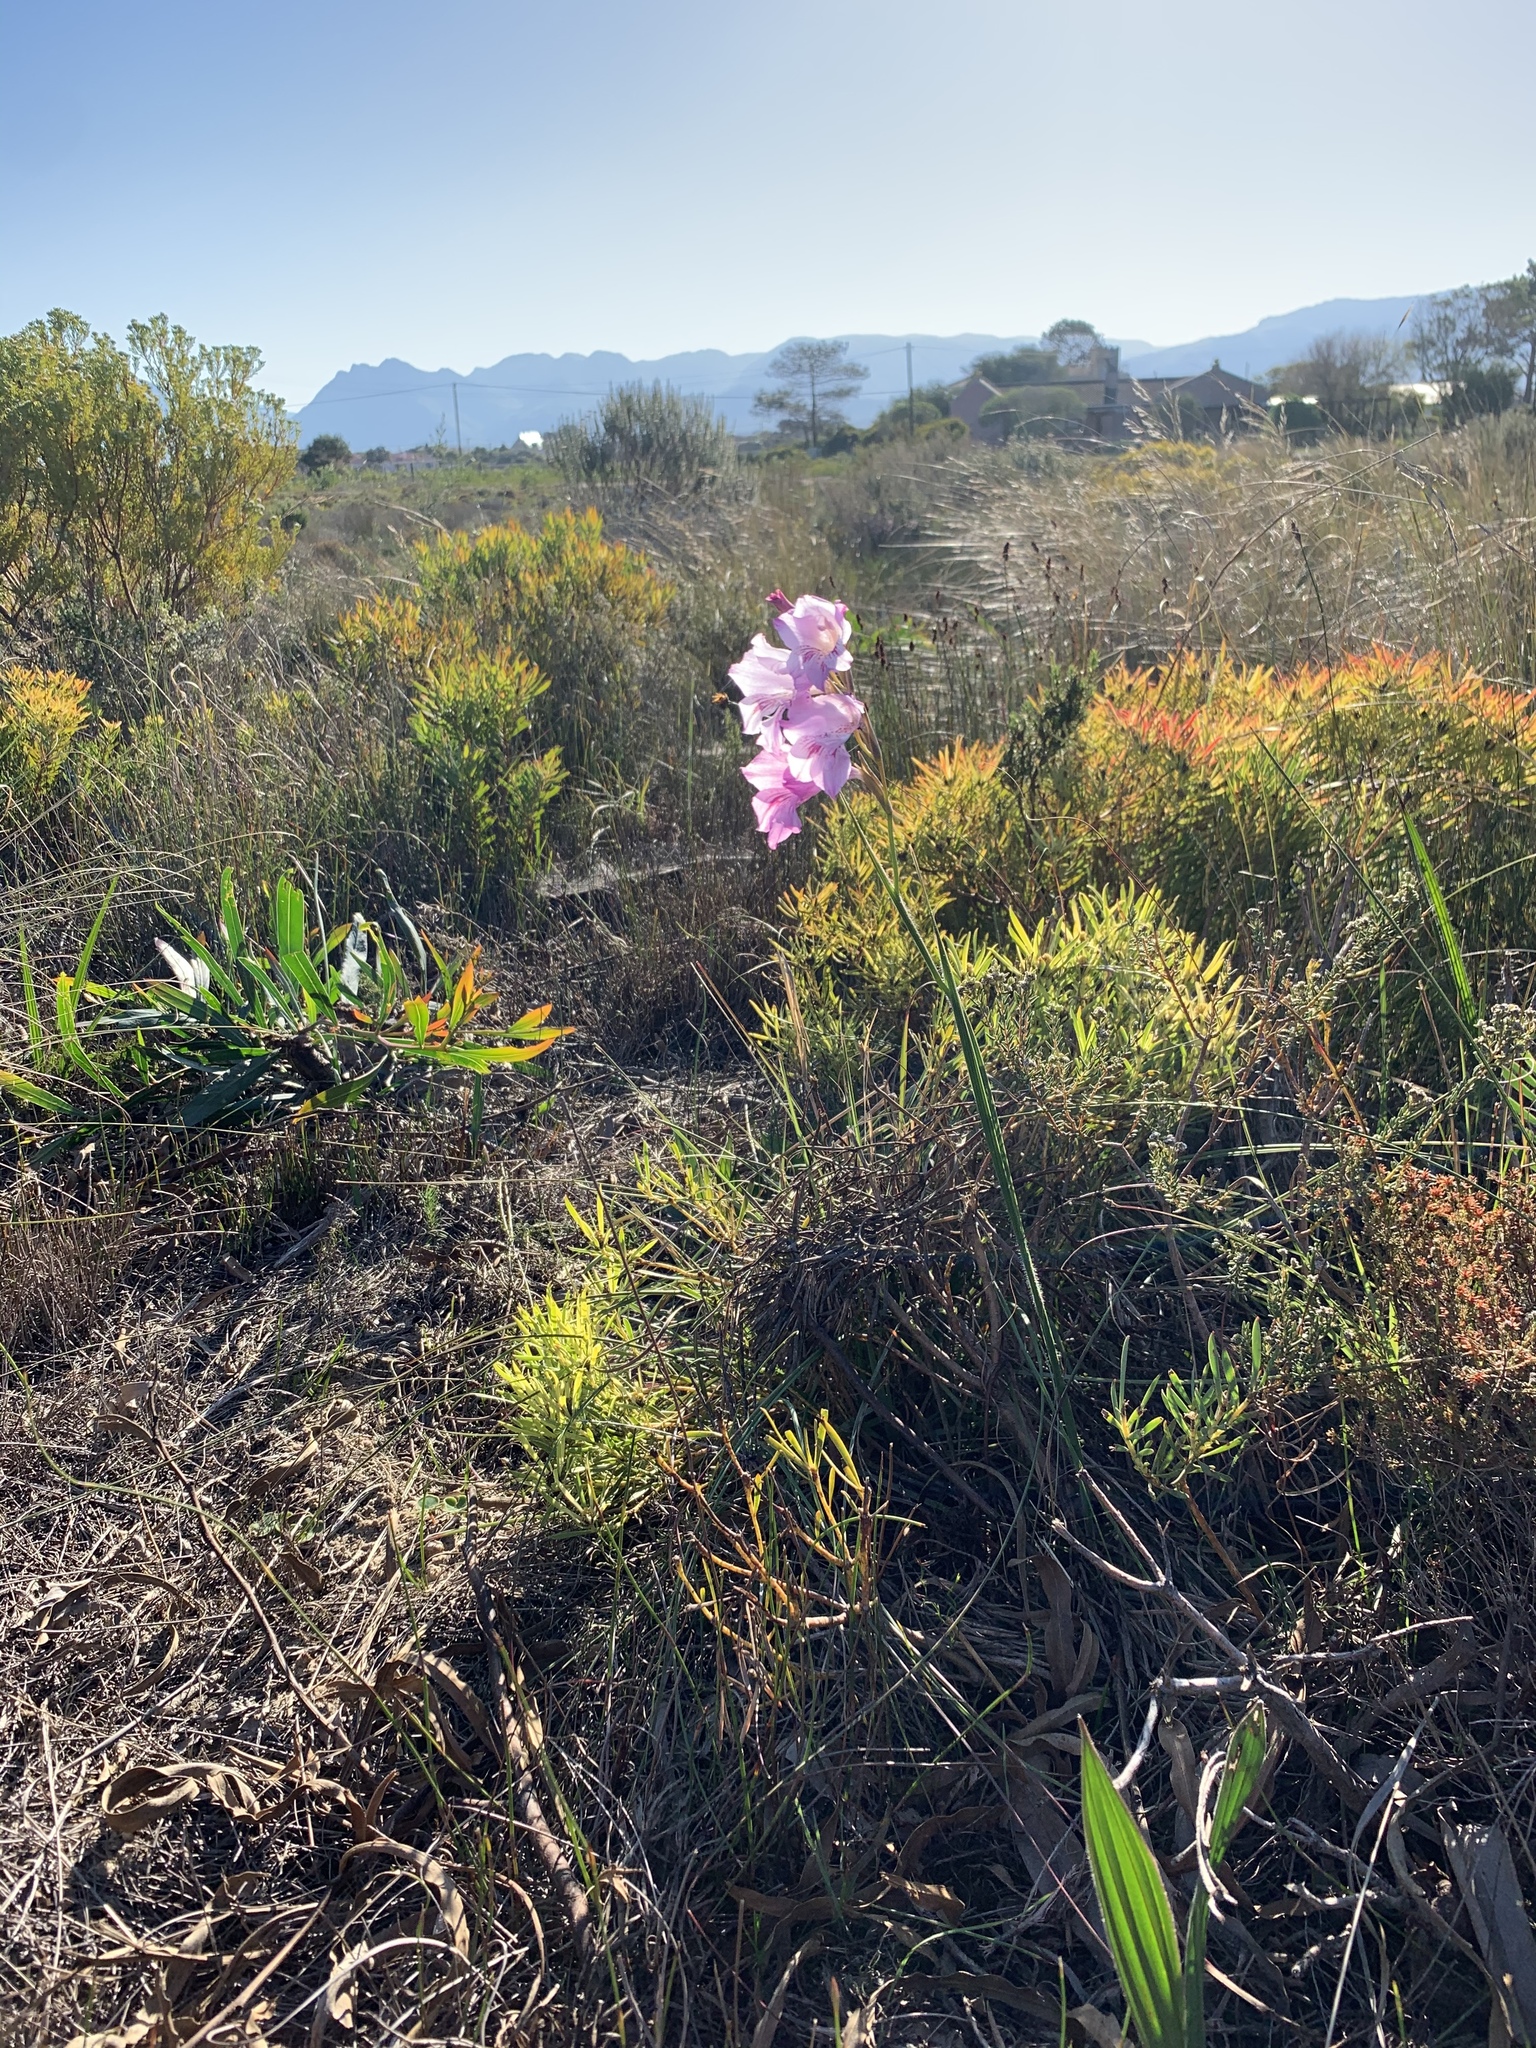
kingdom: Plantae
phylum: Tracheophyta
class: Liliopsida
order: Asparagales
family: Iridaceae
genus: Gladiolus
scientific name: Gladiolus hirsutus
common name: Small pink afrikaner
